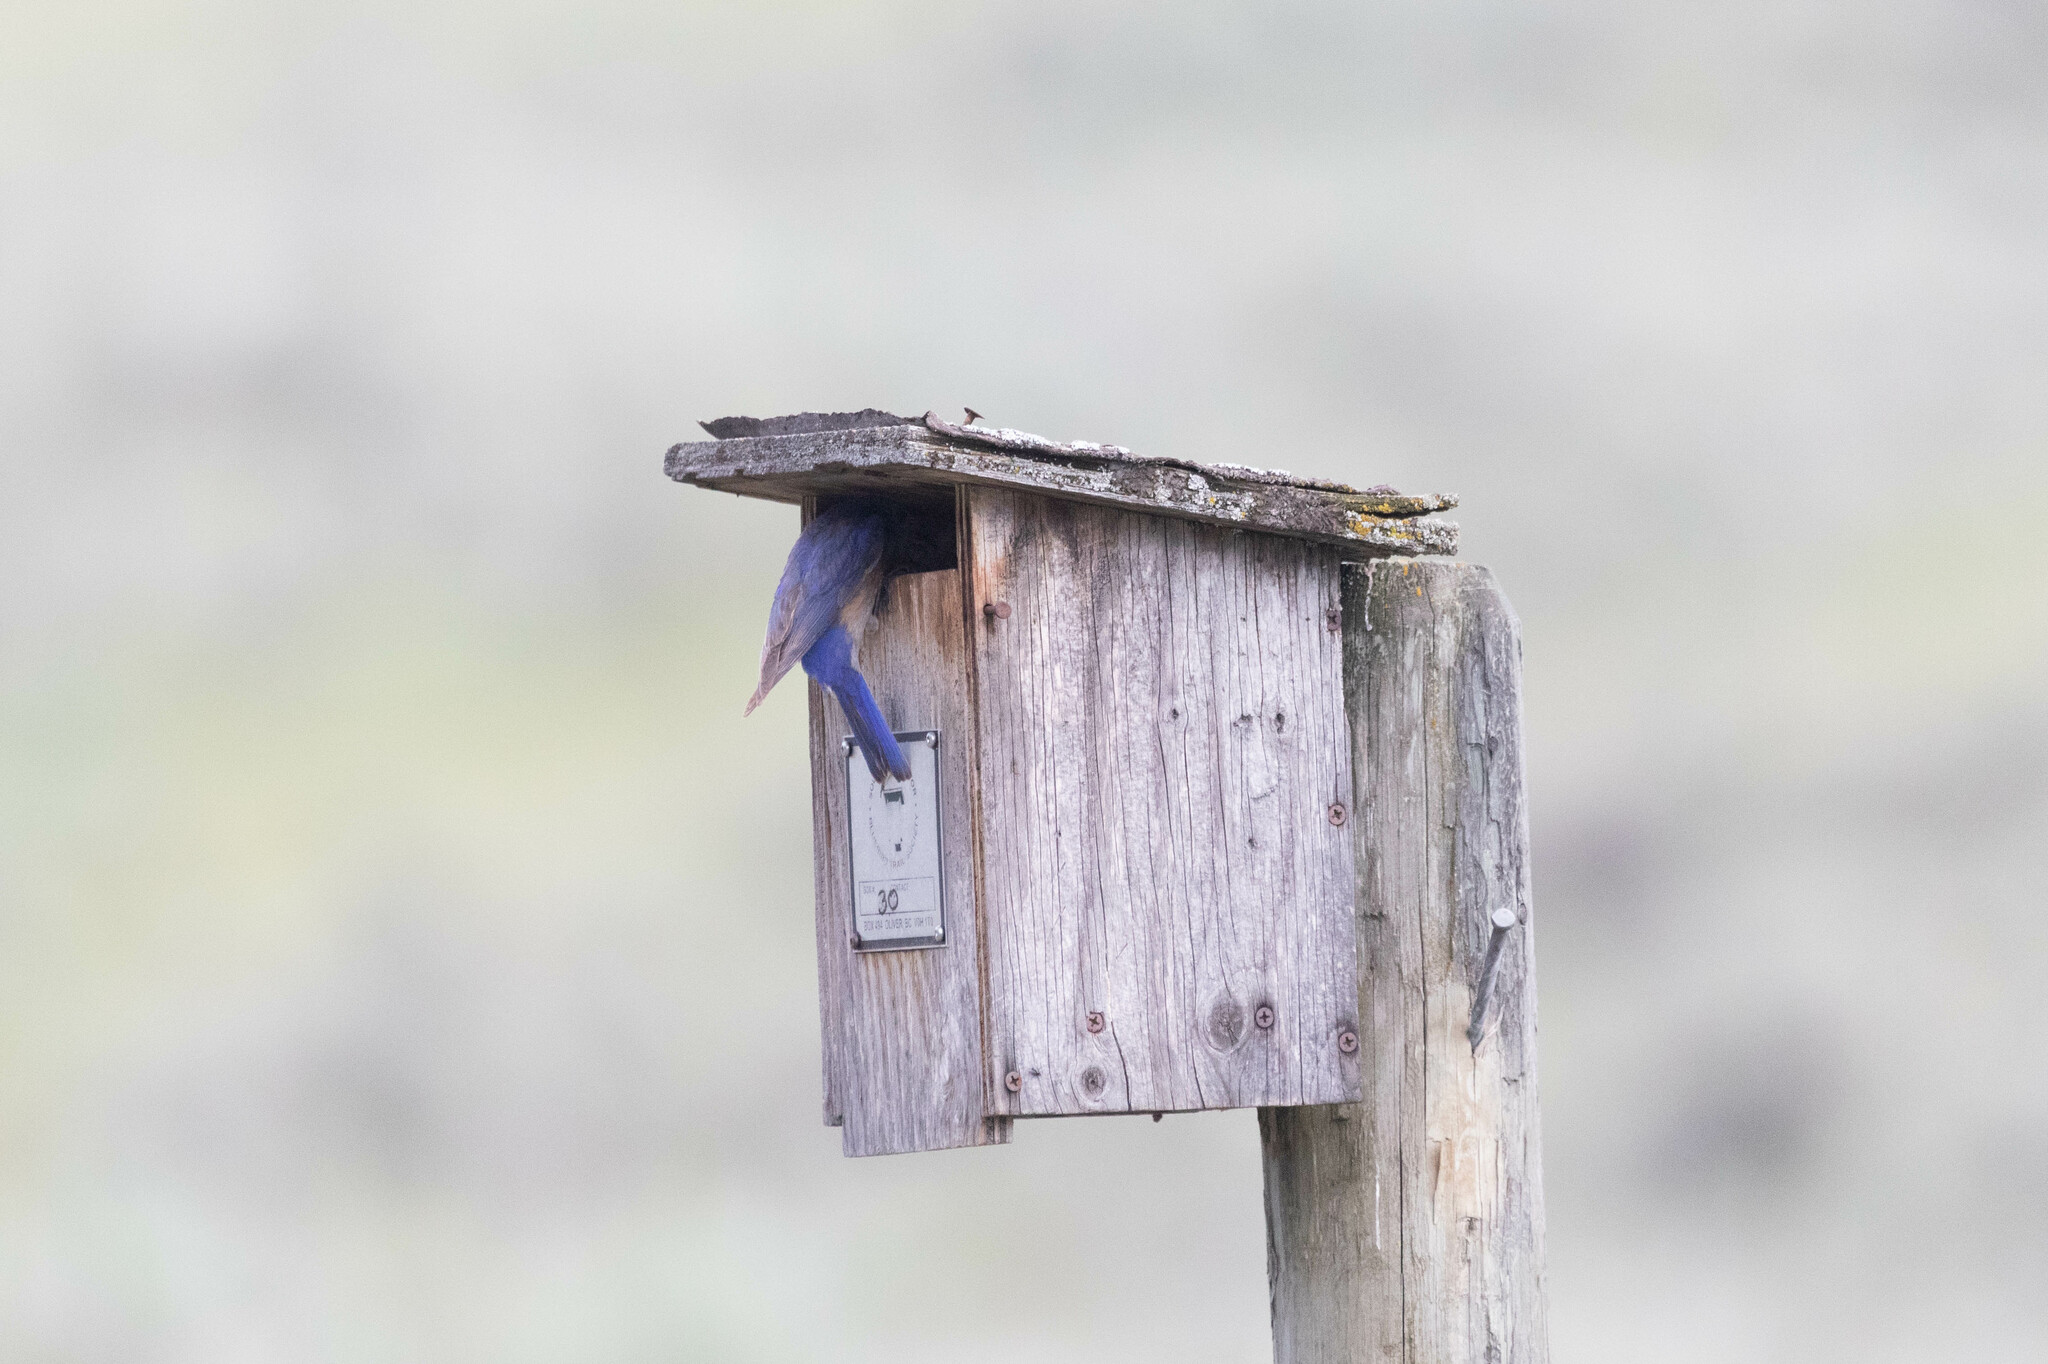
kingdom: Animalia
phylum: Chordata
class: Aves
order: Passeriformes
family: Turdidae
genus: Sialia
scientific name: Sialia mexicana
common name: Western bluebird
